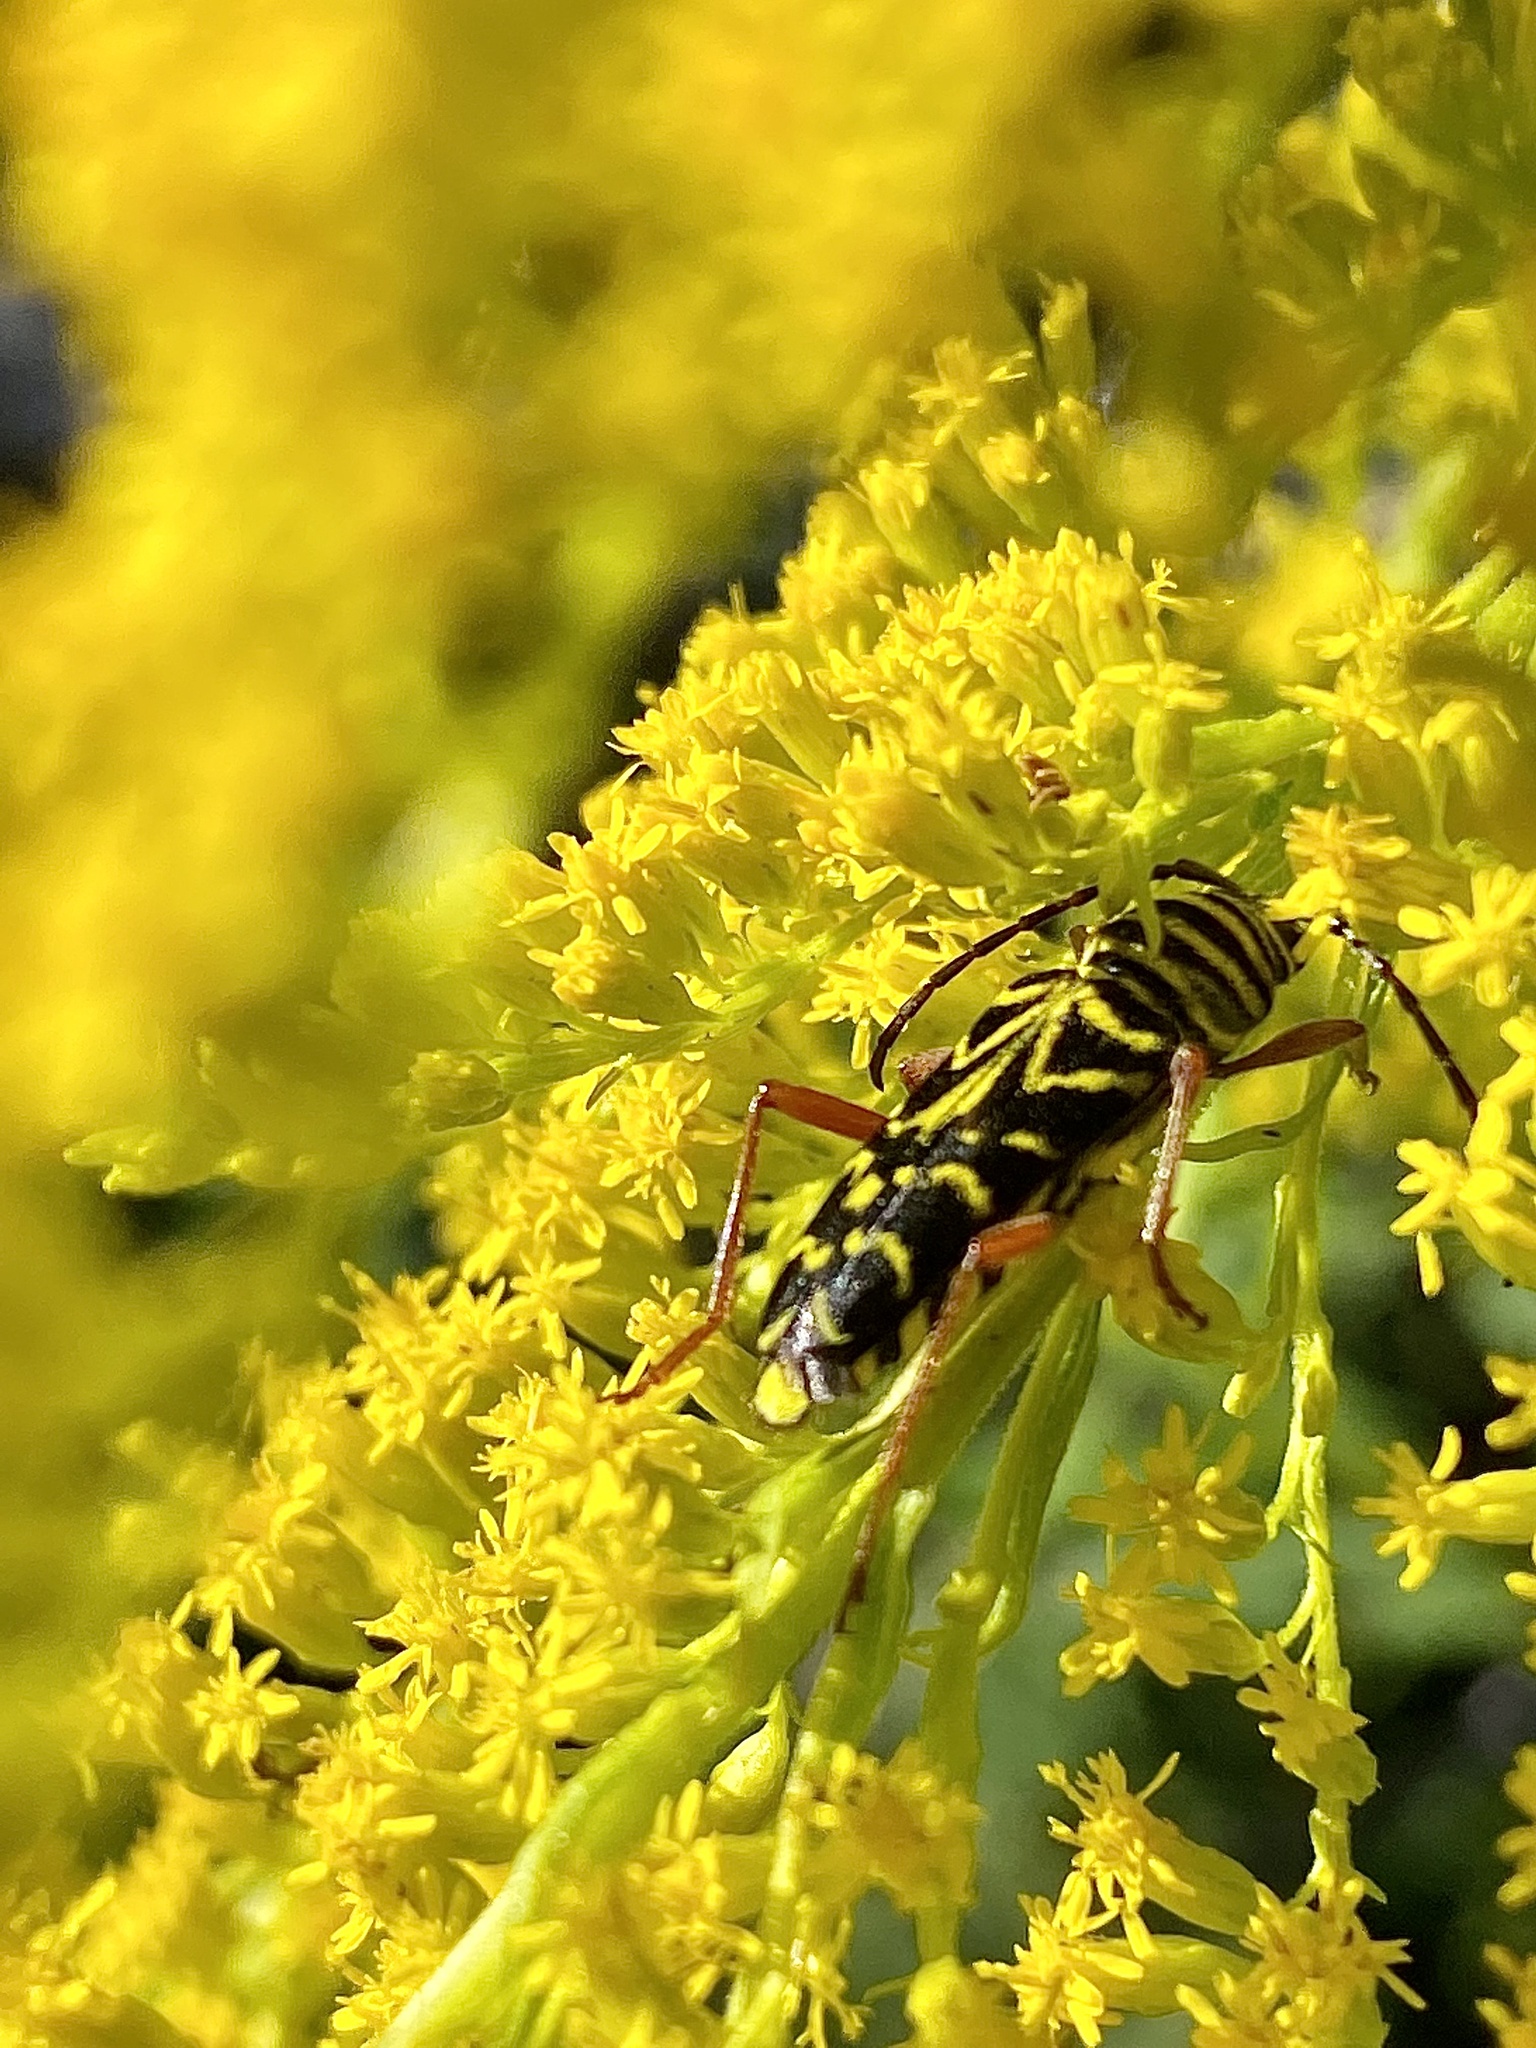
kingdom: Animalia
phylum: Arthropoda
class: Insecta
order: Coleoptera
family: Cerambycidae
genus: Megacyllene
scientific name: Megacyllene robiniae
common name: Locust borer
